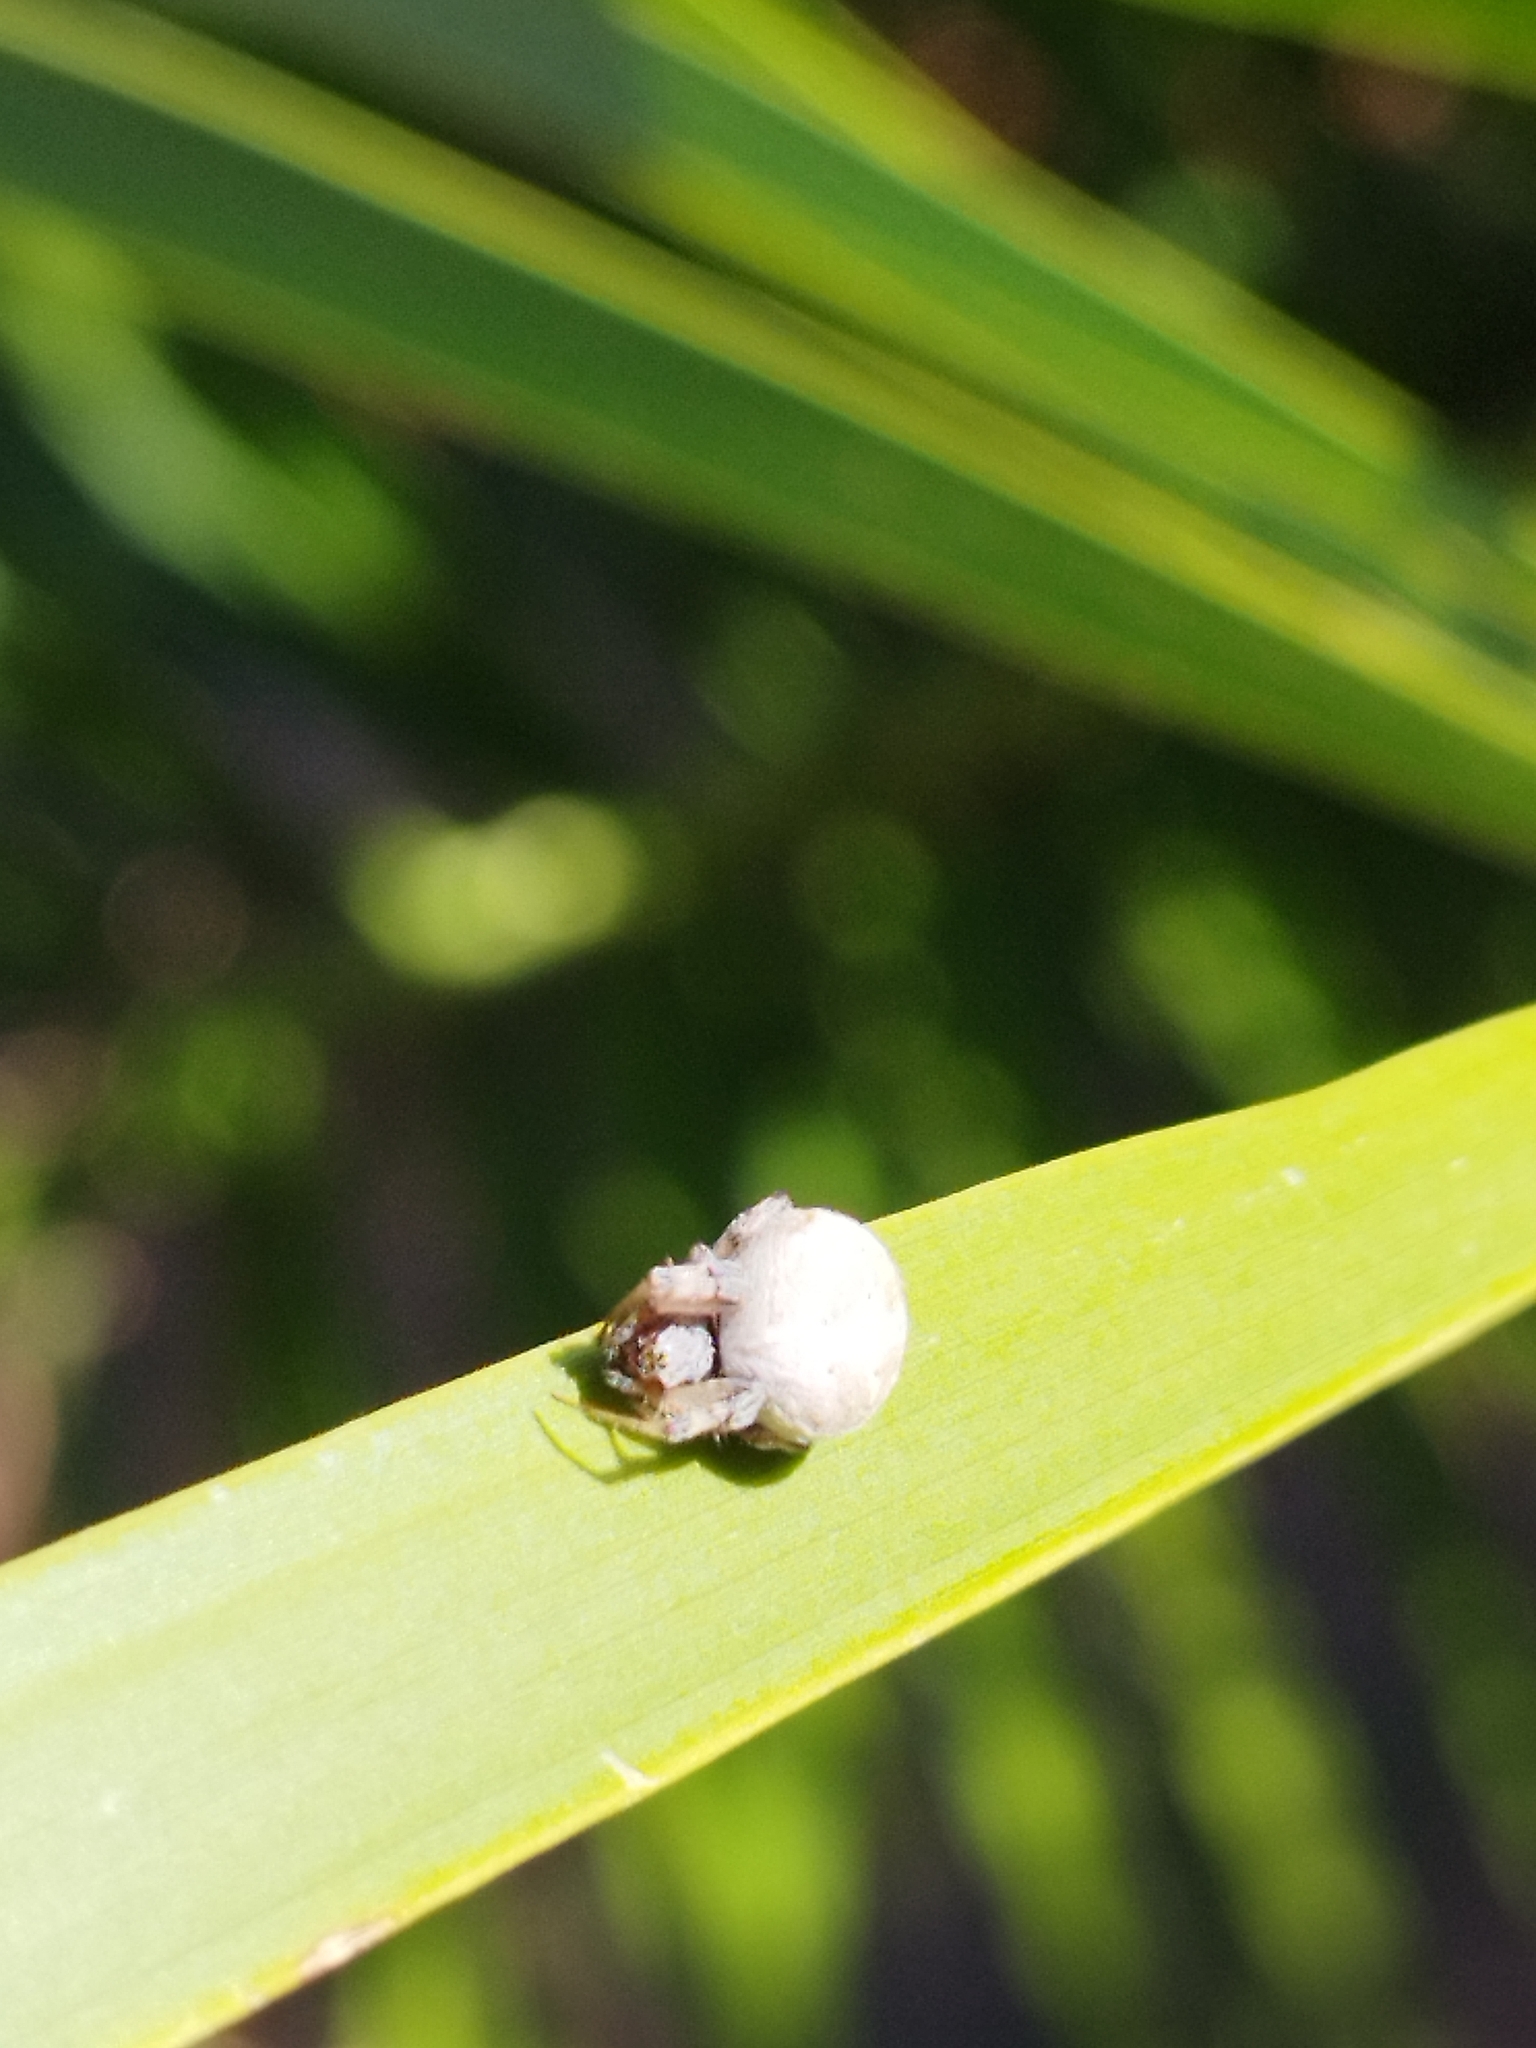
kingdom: Animalia
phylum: Arthropoda
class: Arachnida
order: Araneae
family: Araneidae
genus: Metepeira
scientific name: Metepeira
